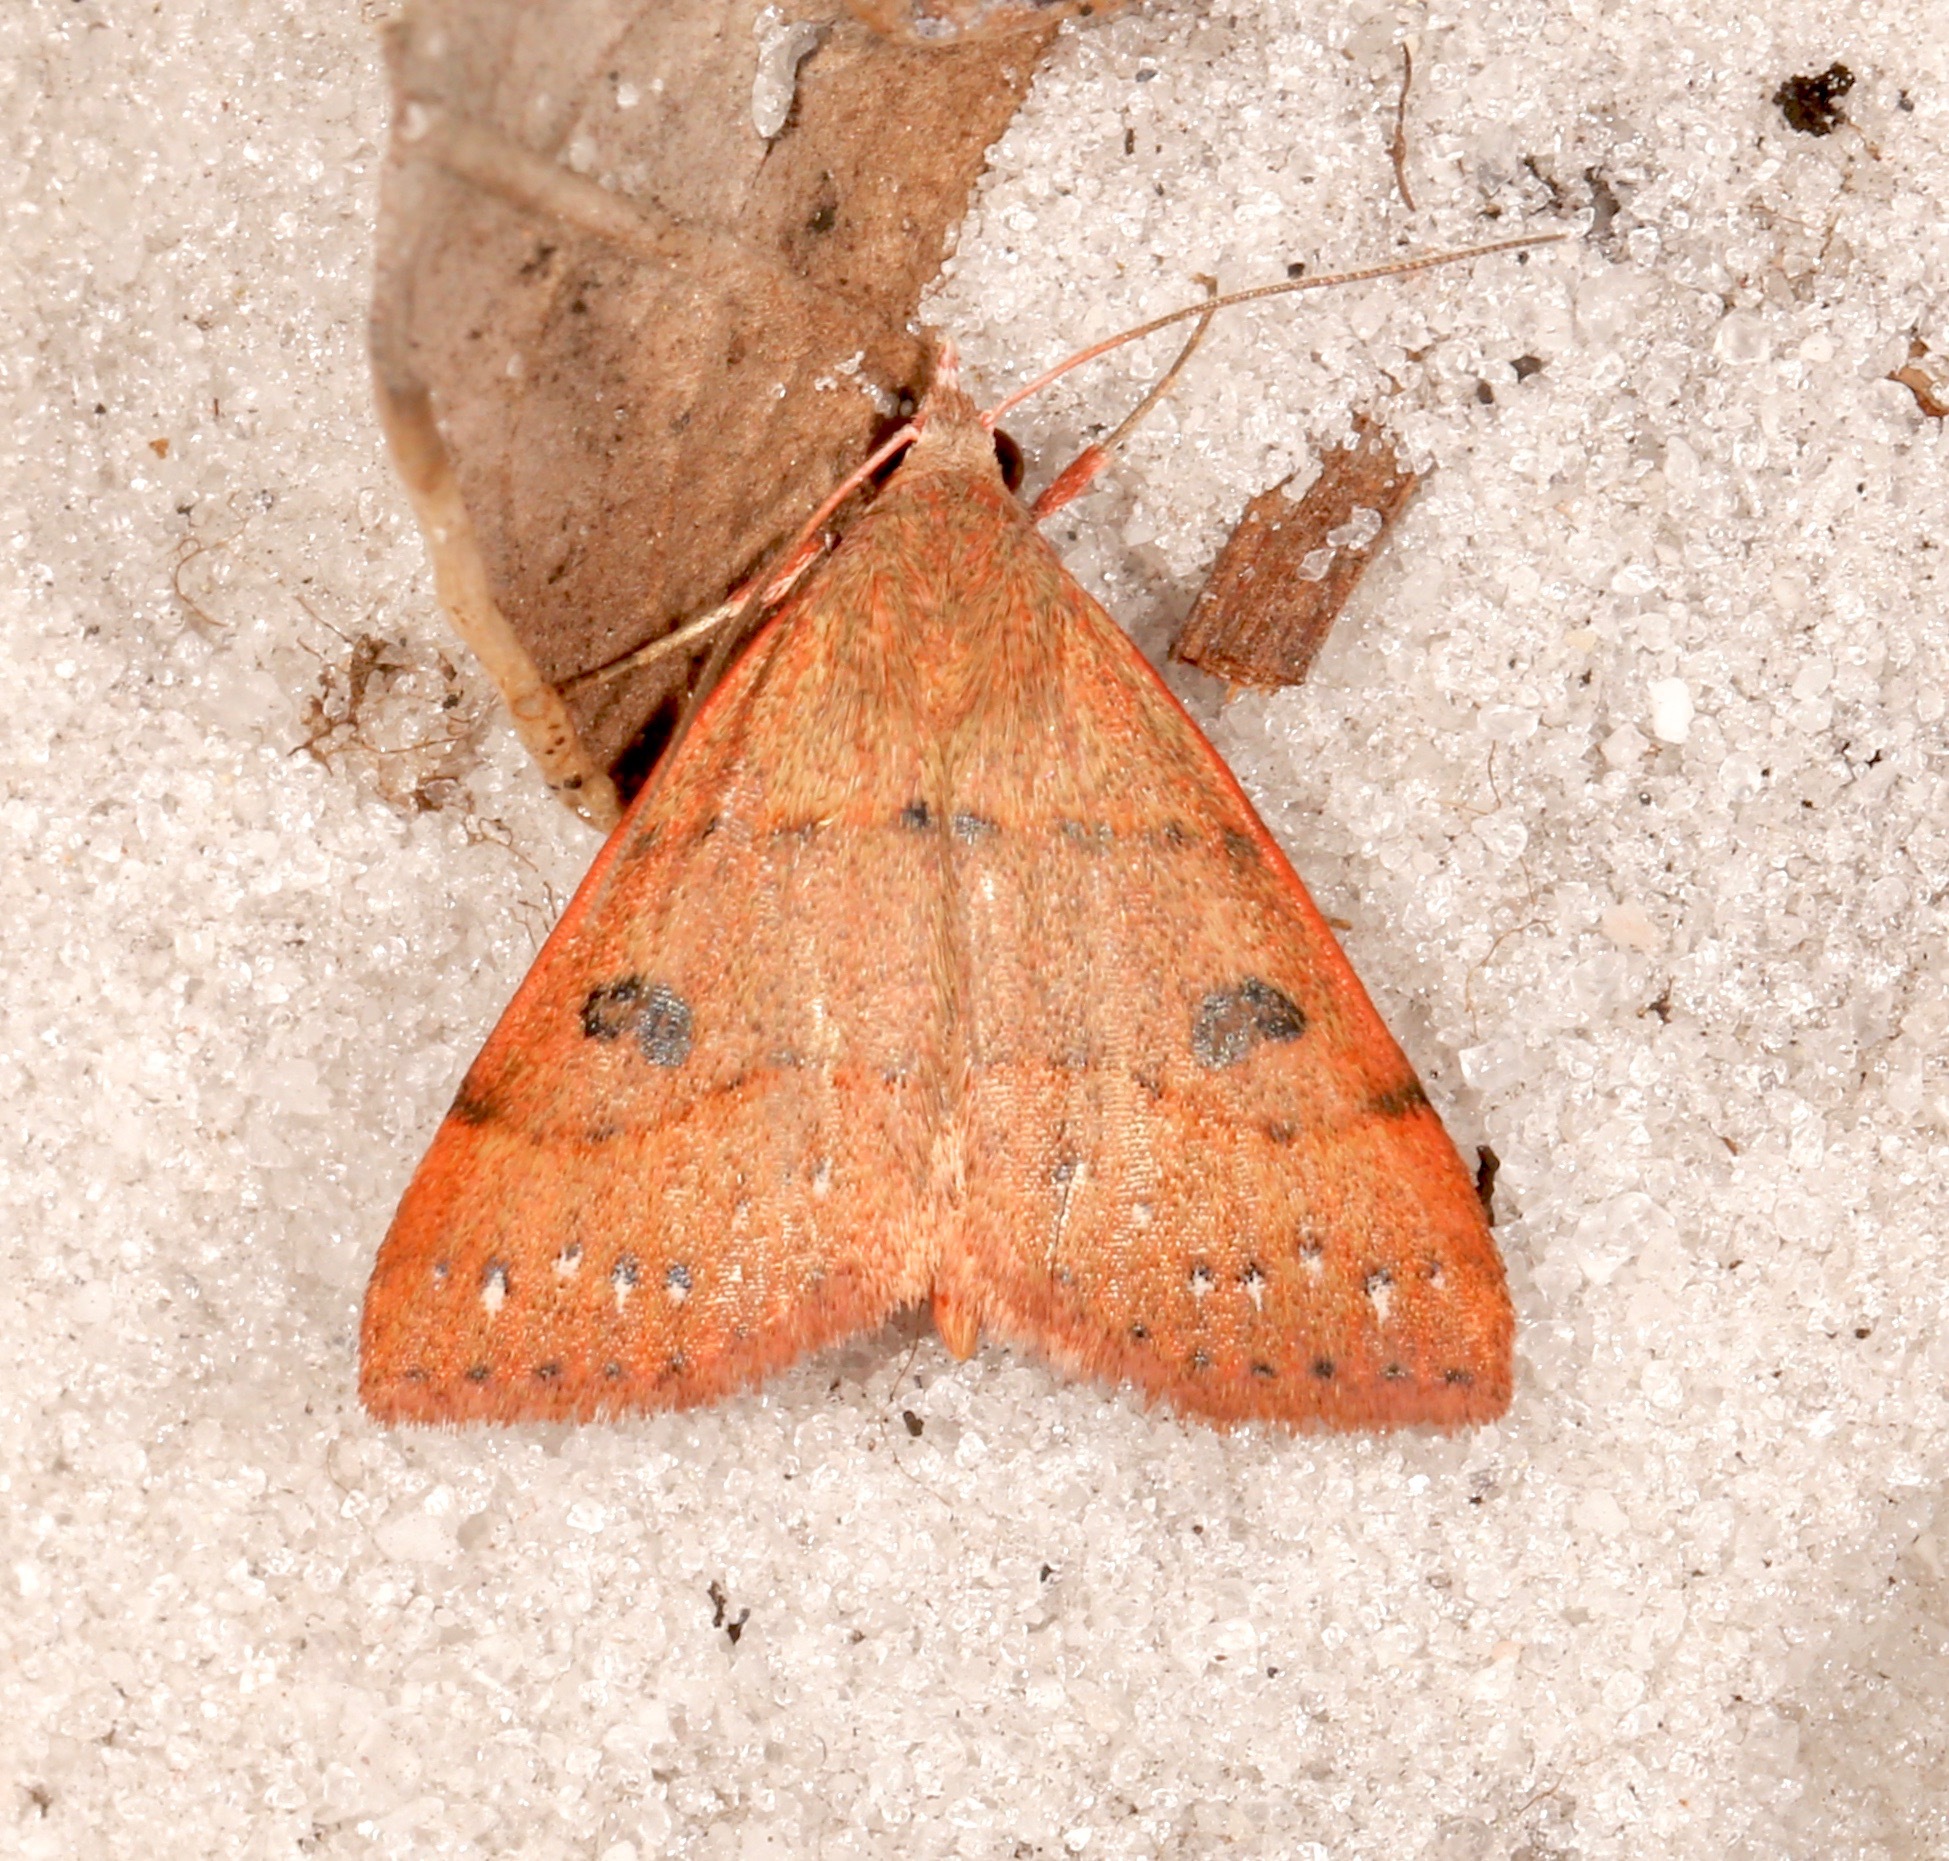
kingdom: Animalia
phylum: Arthropoda
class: Insecta
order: Lepidoptera
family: Erebidae
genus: Hemeroplanis
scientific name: Hemeroplanis habitalis
